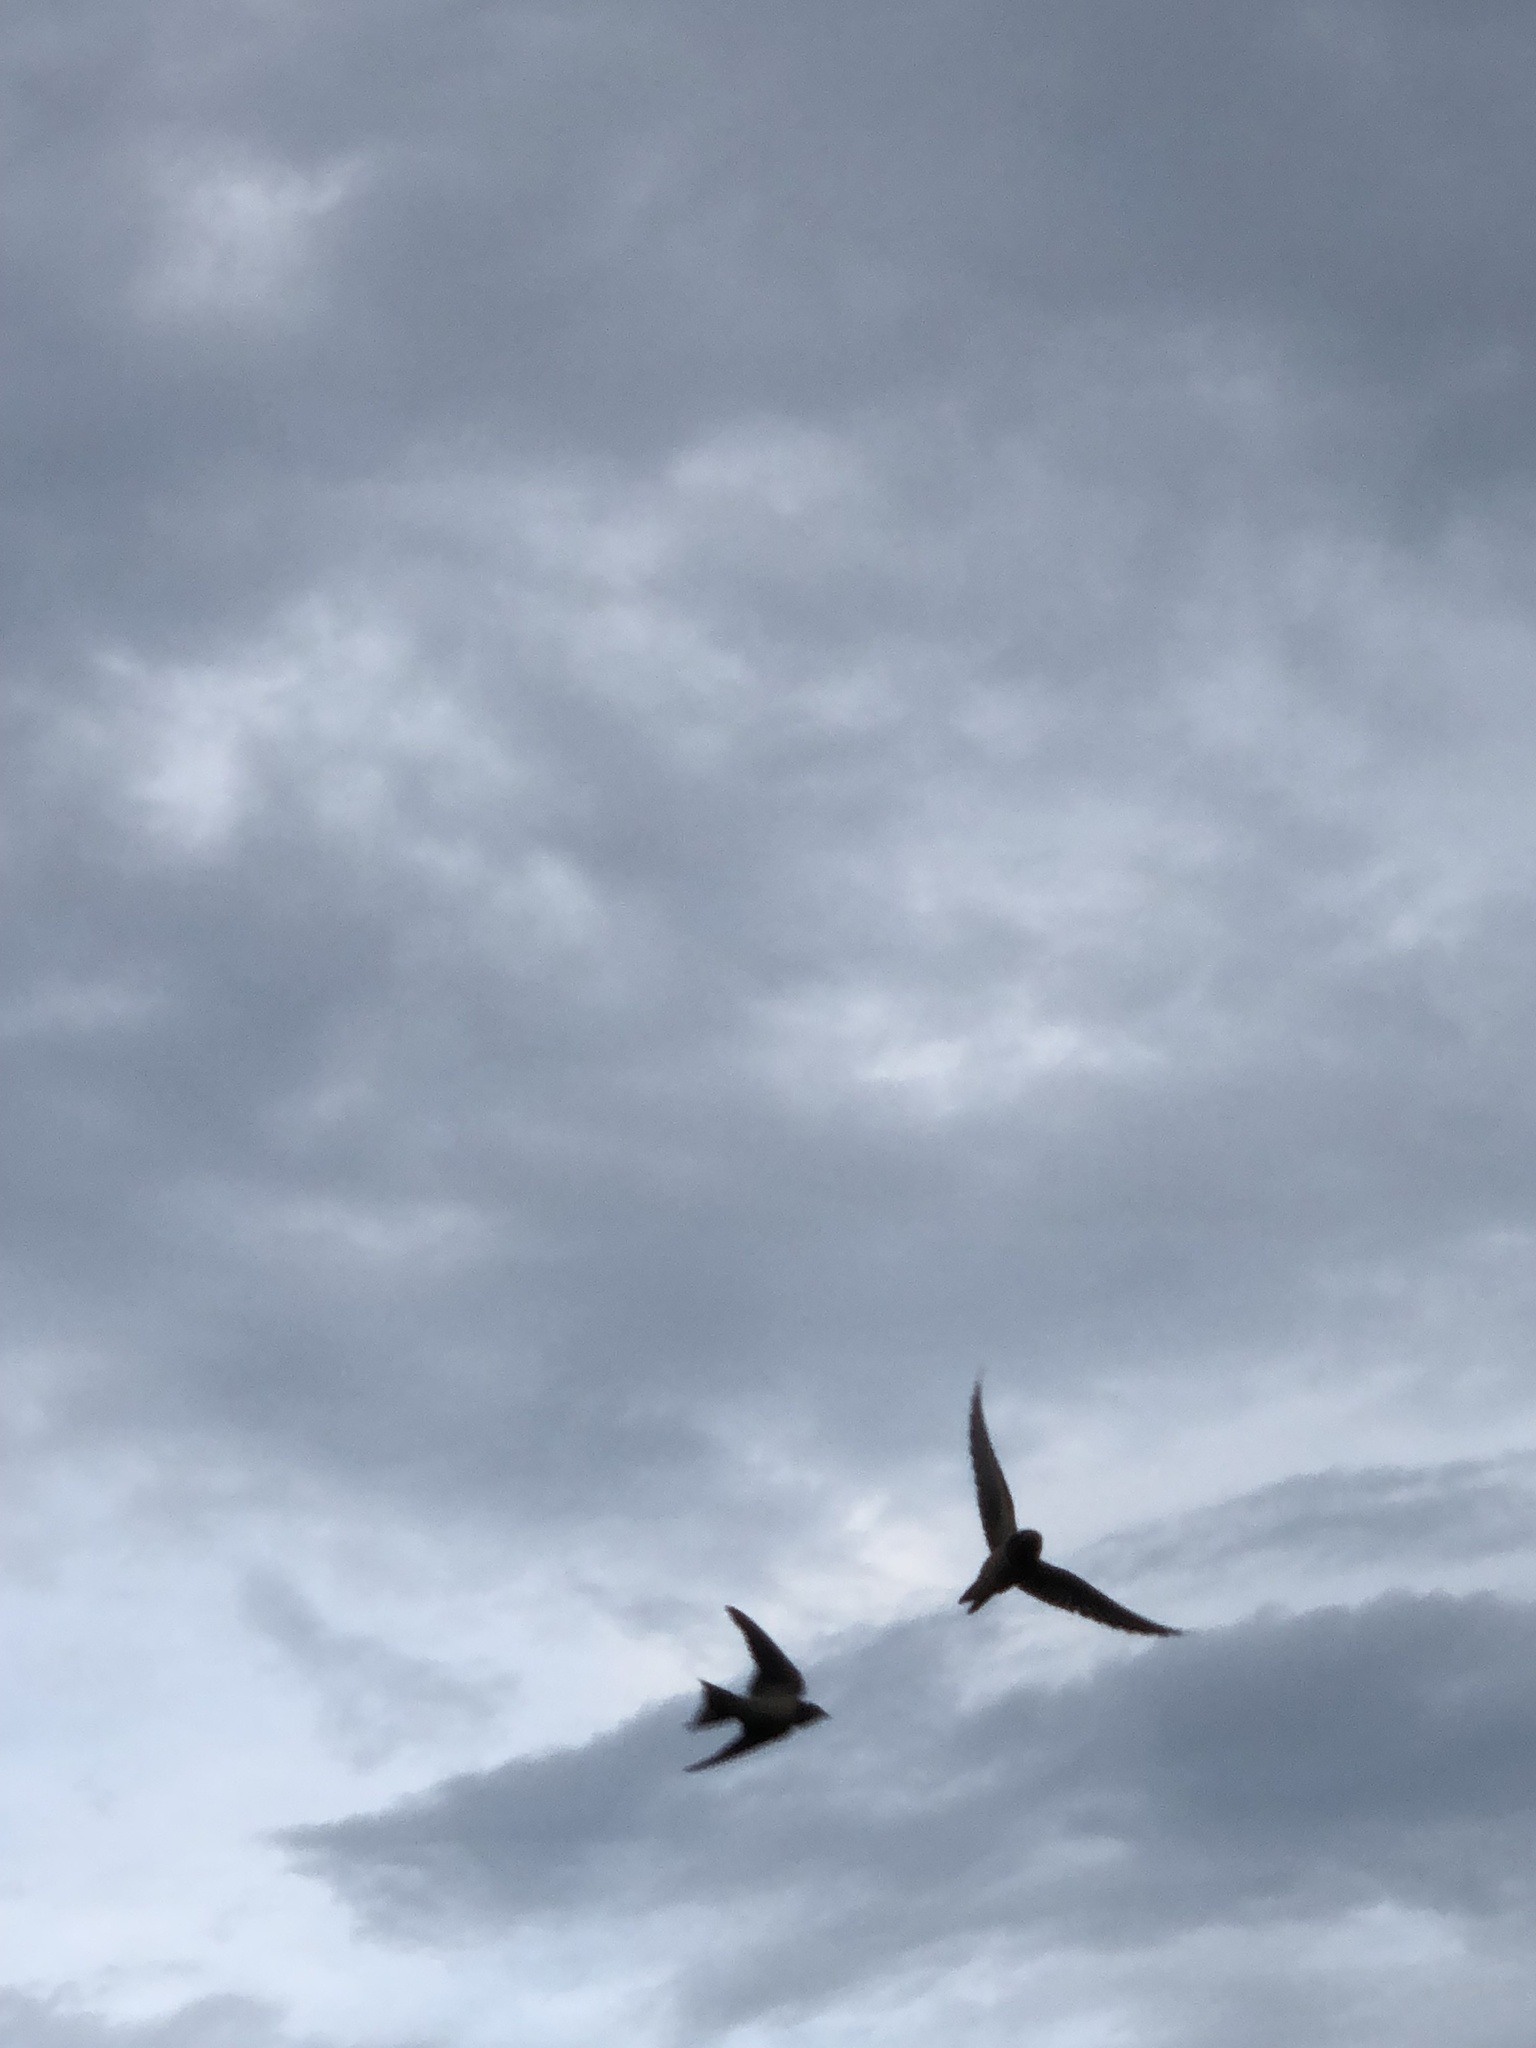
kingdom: Animalia
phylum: Chordata
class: Aves
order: Passeriformes
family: Hirundinidae
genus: Hirundo
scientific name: Hirundo rustica
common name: Barn swallow
